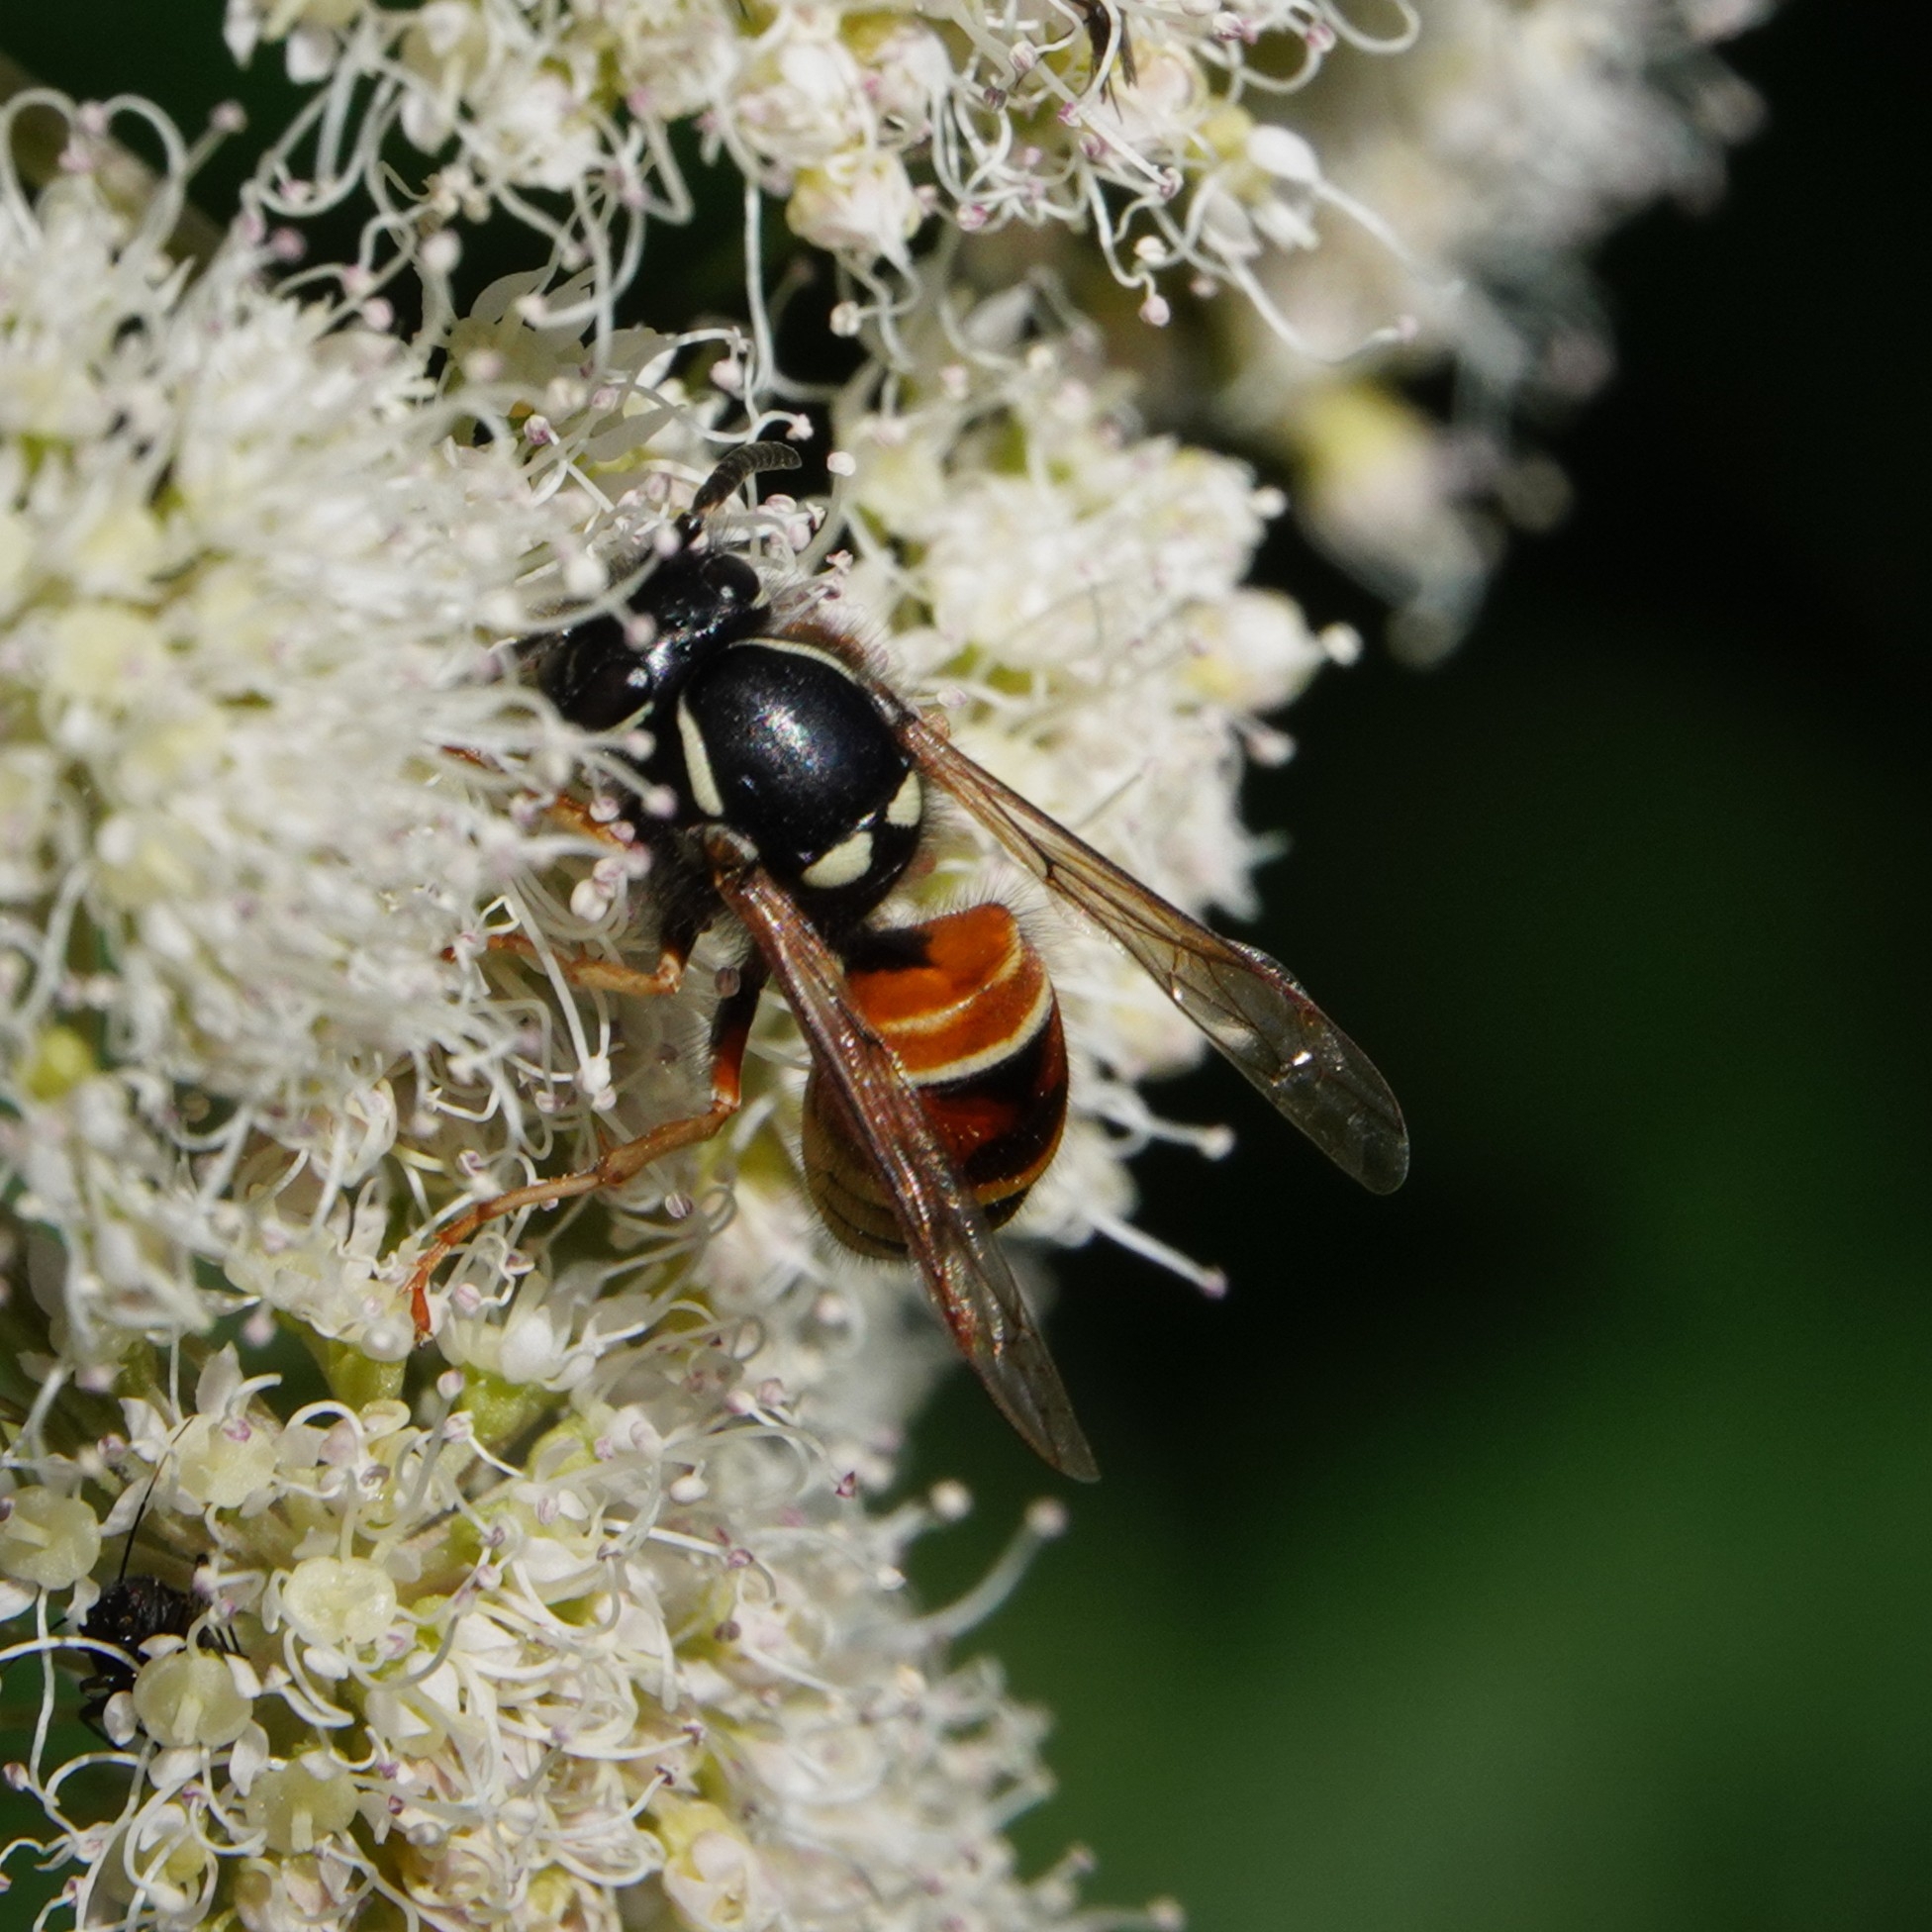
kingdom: Animalia
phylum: Arthropoda
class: Insecta
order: Hymenoptera
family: Vespidae
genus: Vespula
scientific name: Vespula rufa
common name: Red wasp
